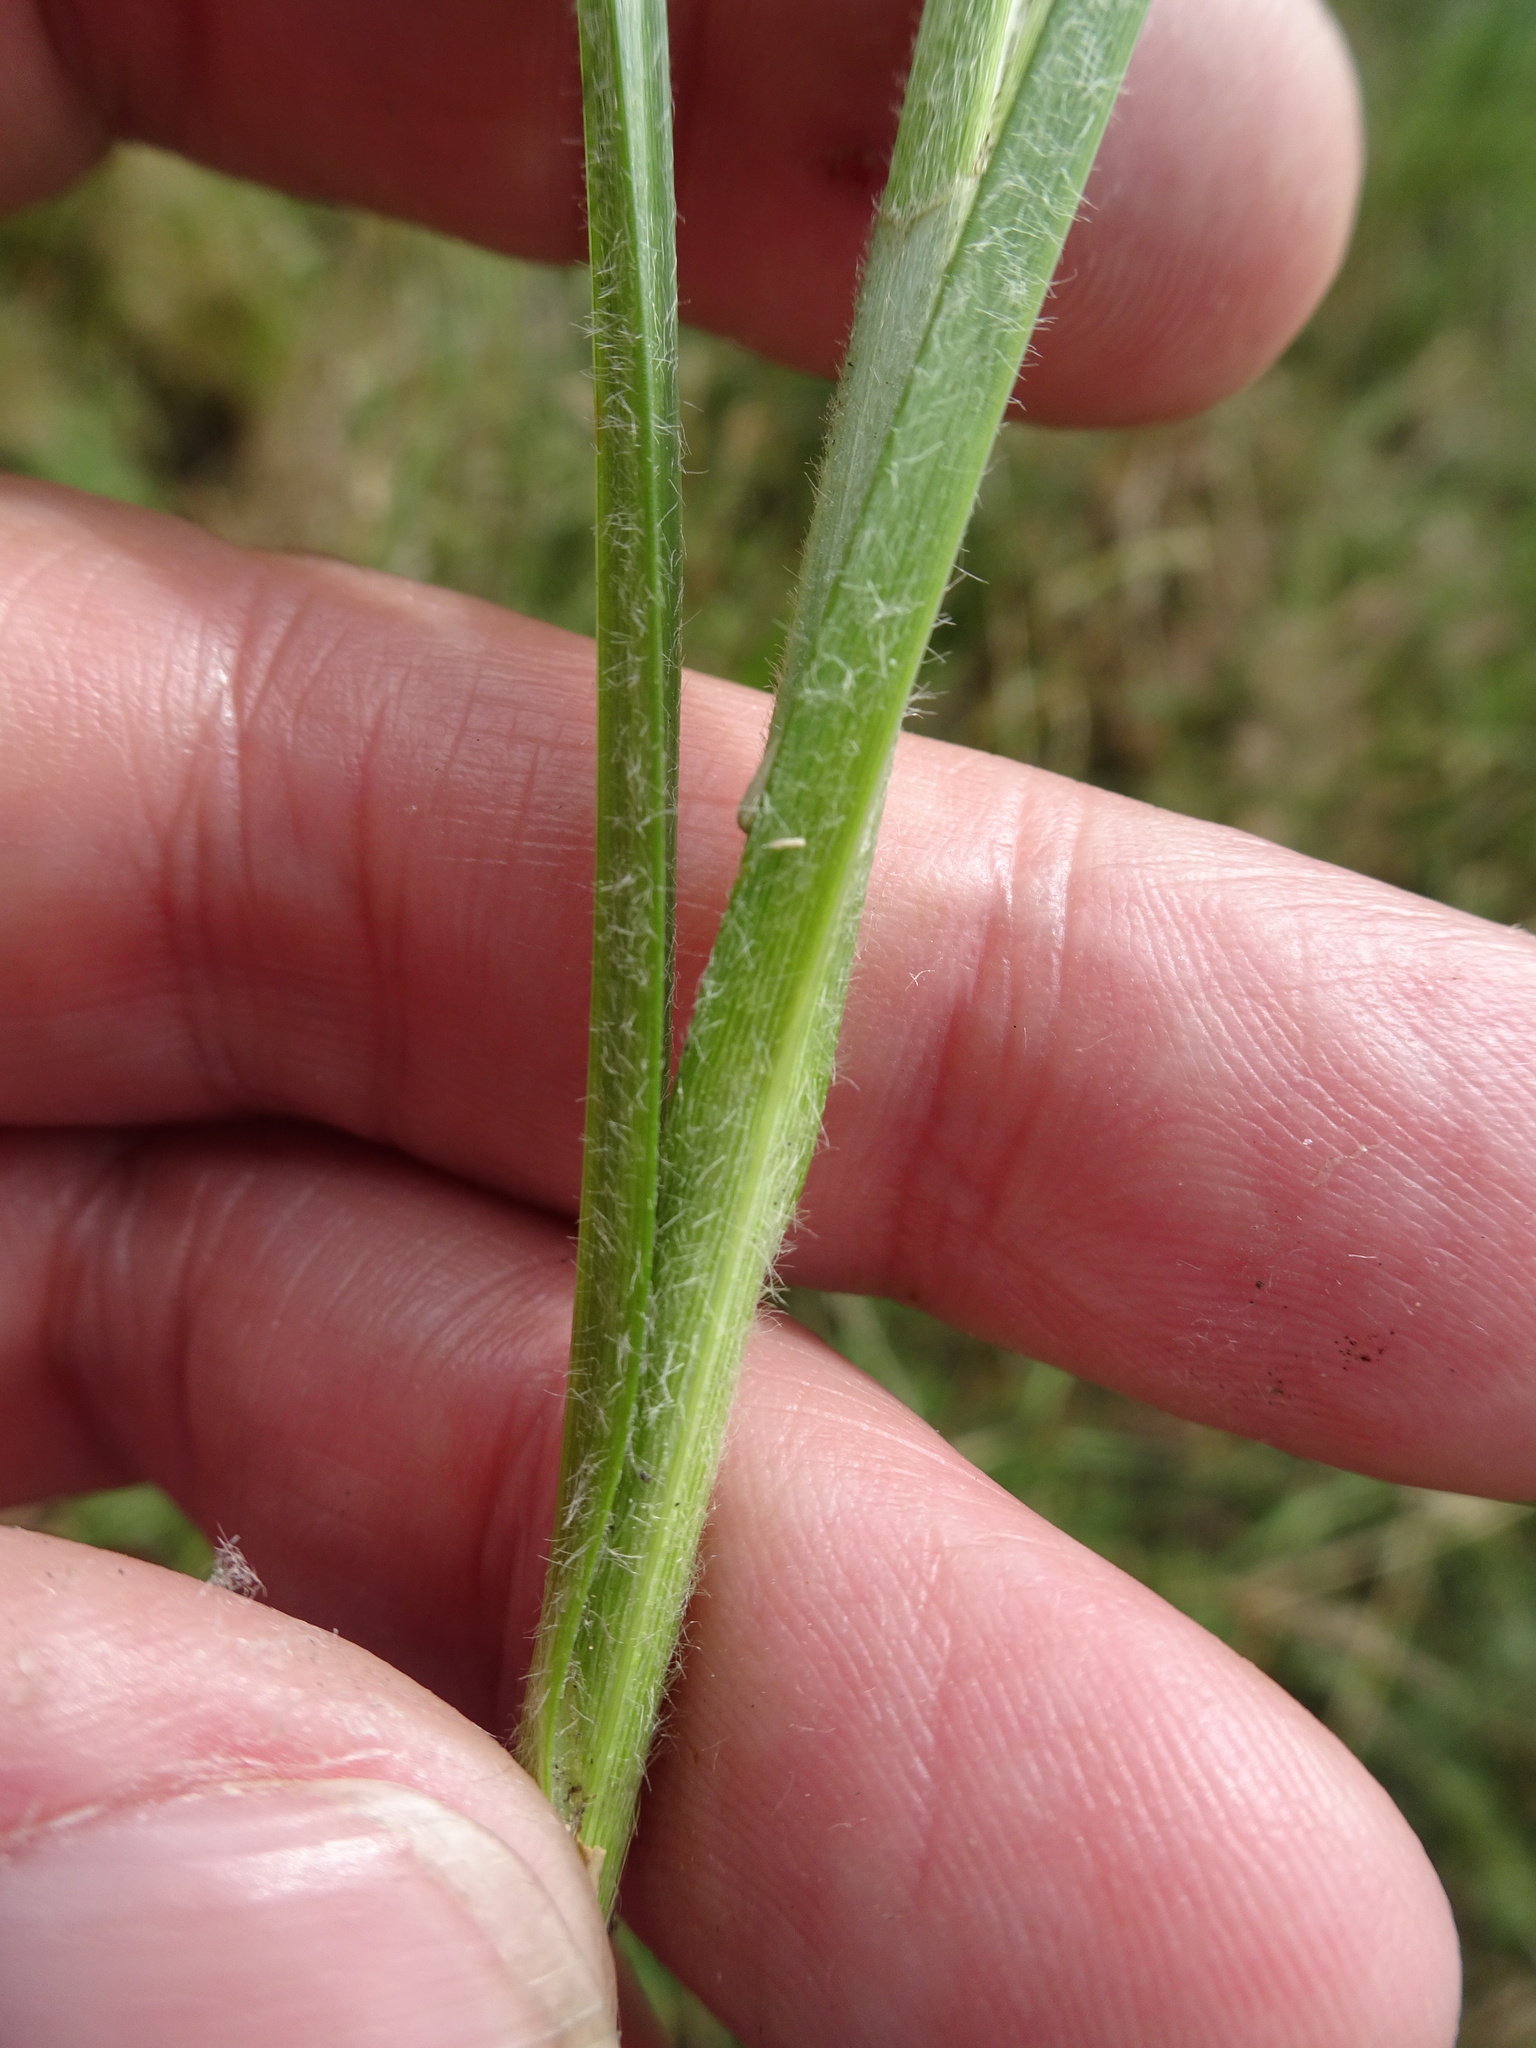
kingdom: Plantae
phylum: Tracheophyta
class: Liliopsida
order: Poales
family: Cyperaceae
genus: Carex
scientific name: Carex hirta
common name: Hairy sedge
